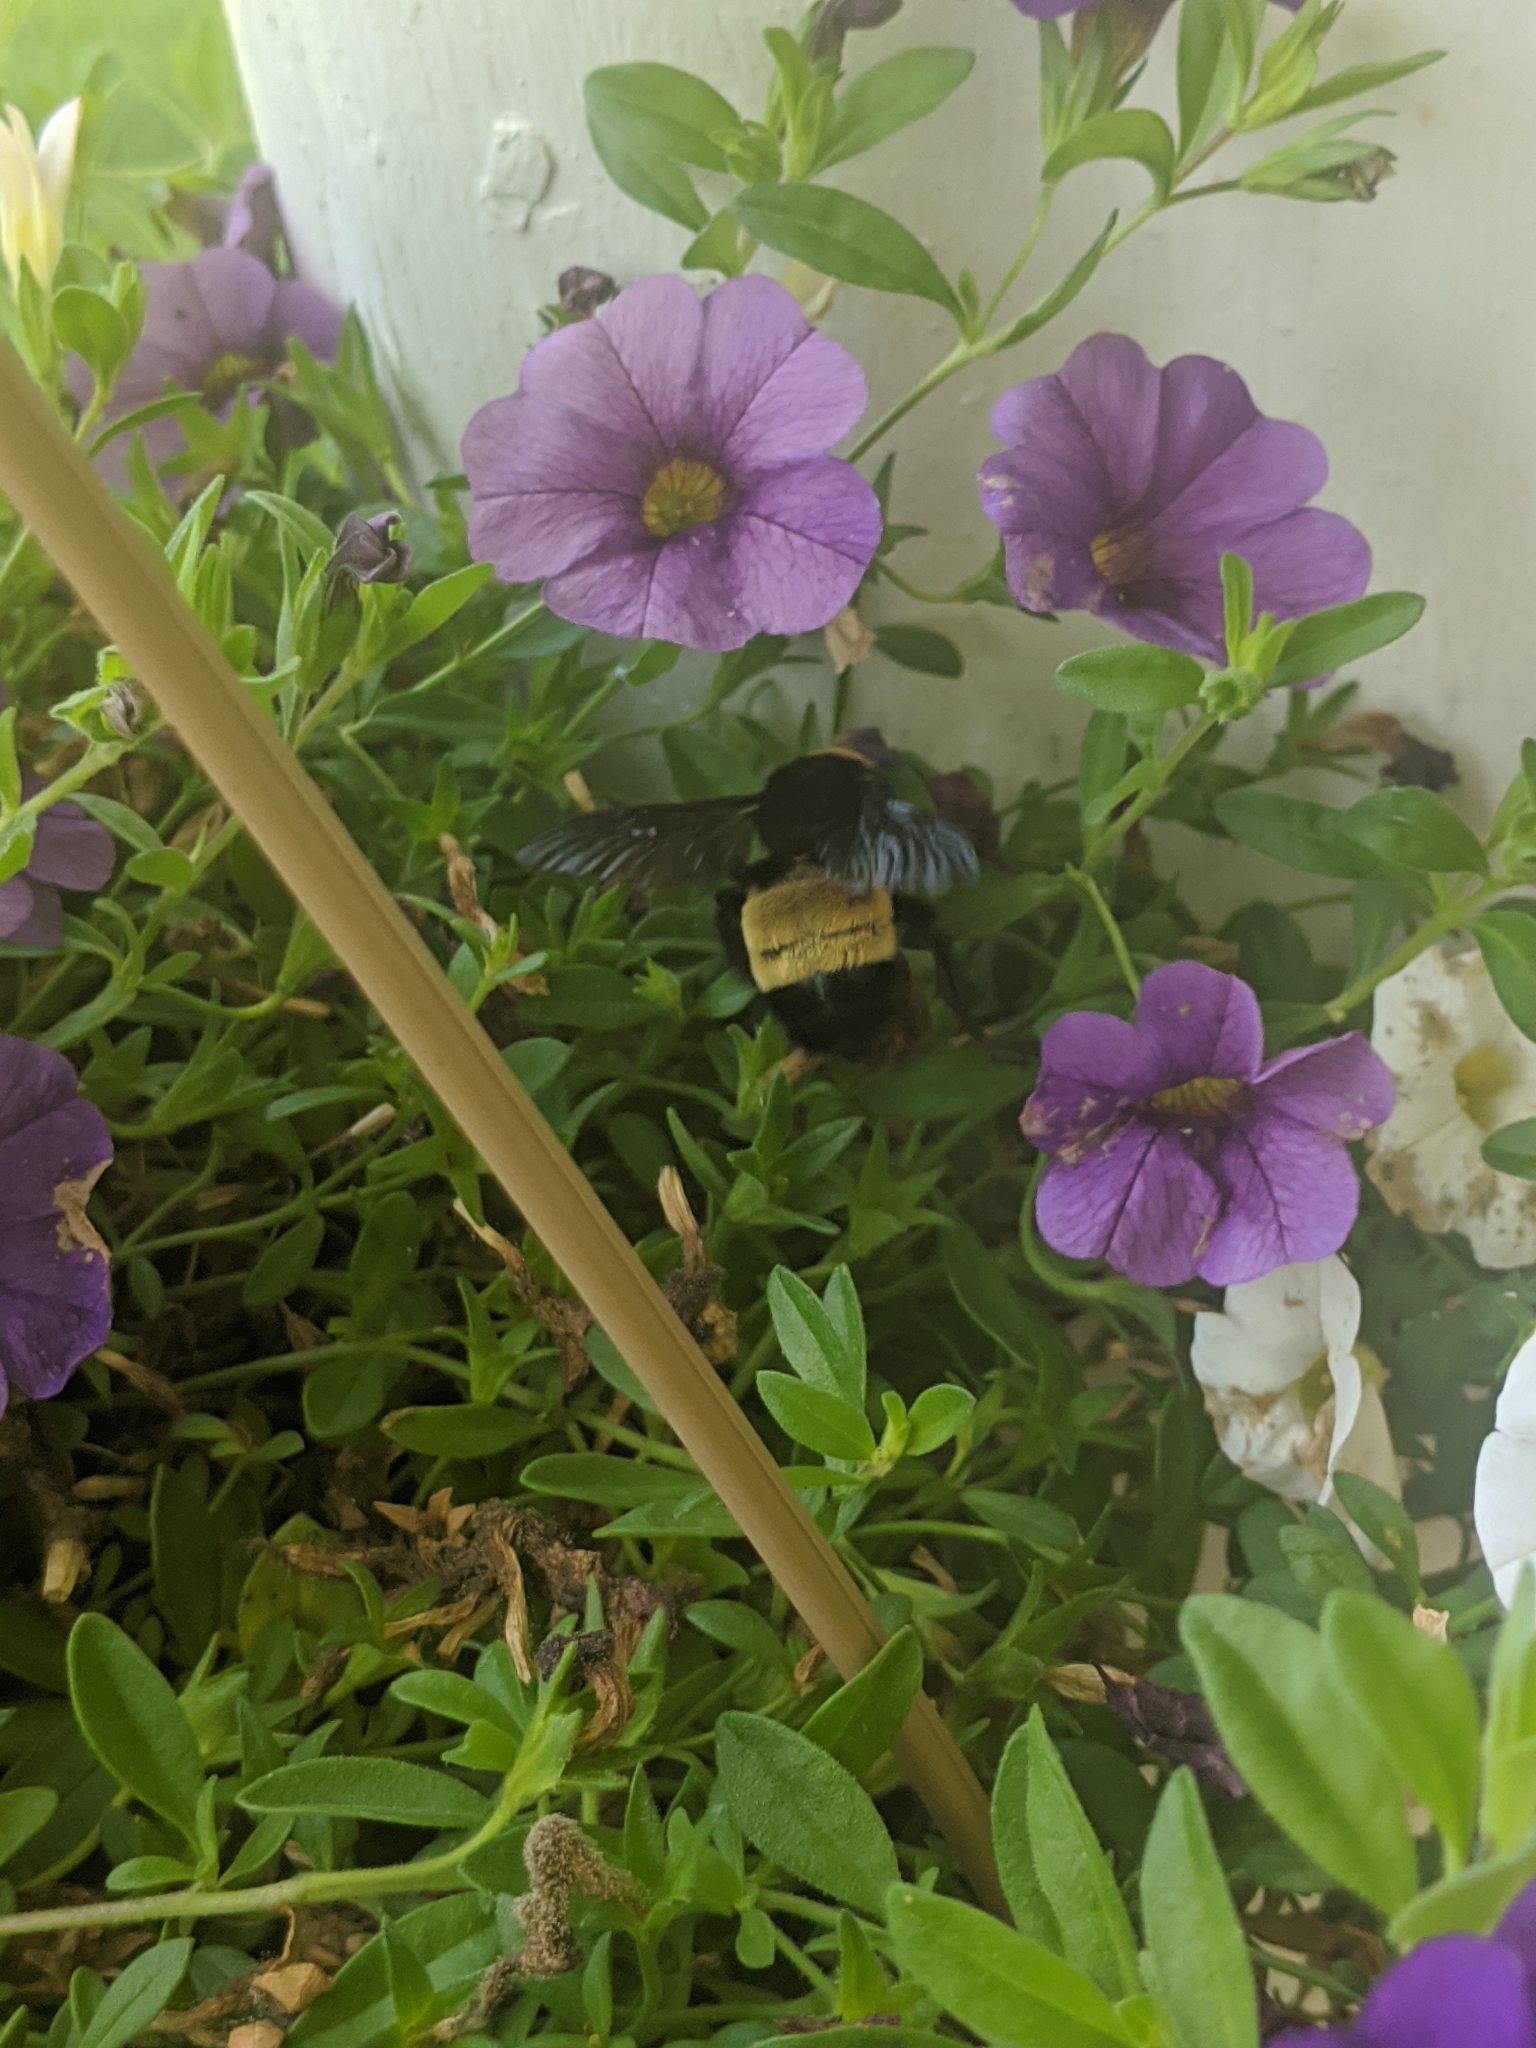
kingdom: Animalia
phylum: Arthropoda
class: Insecta
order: Hymenoptera
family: Apidae
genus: Bombus
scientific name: Bombus pensylvanicus
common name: Bumble bee
